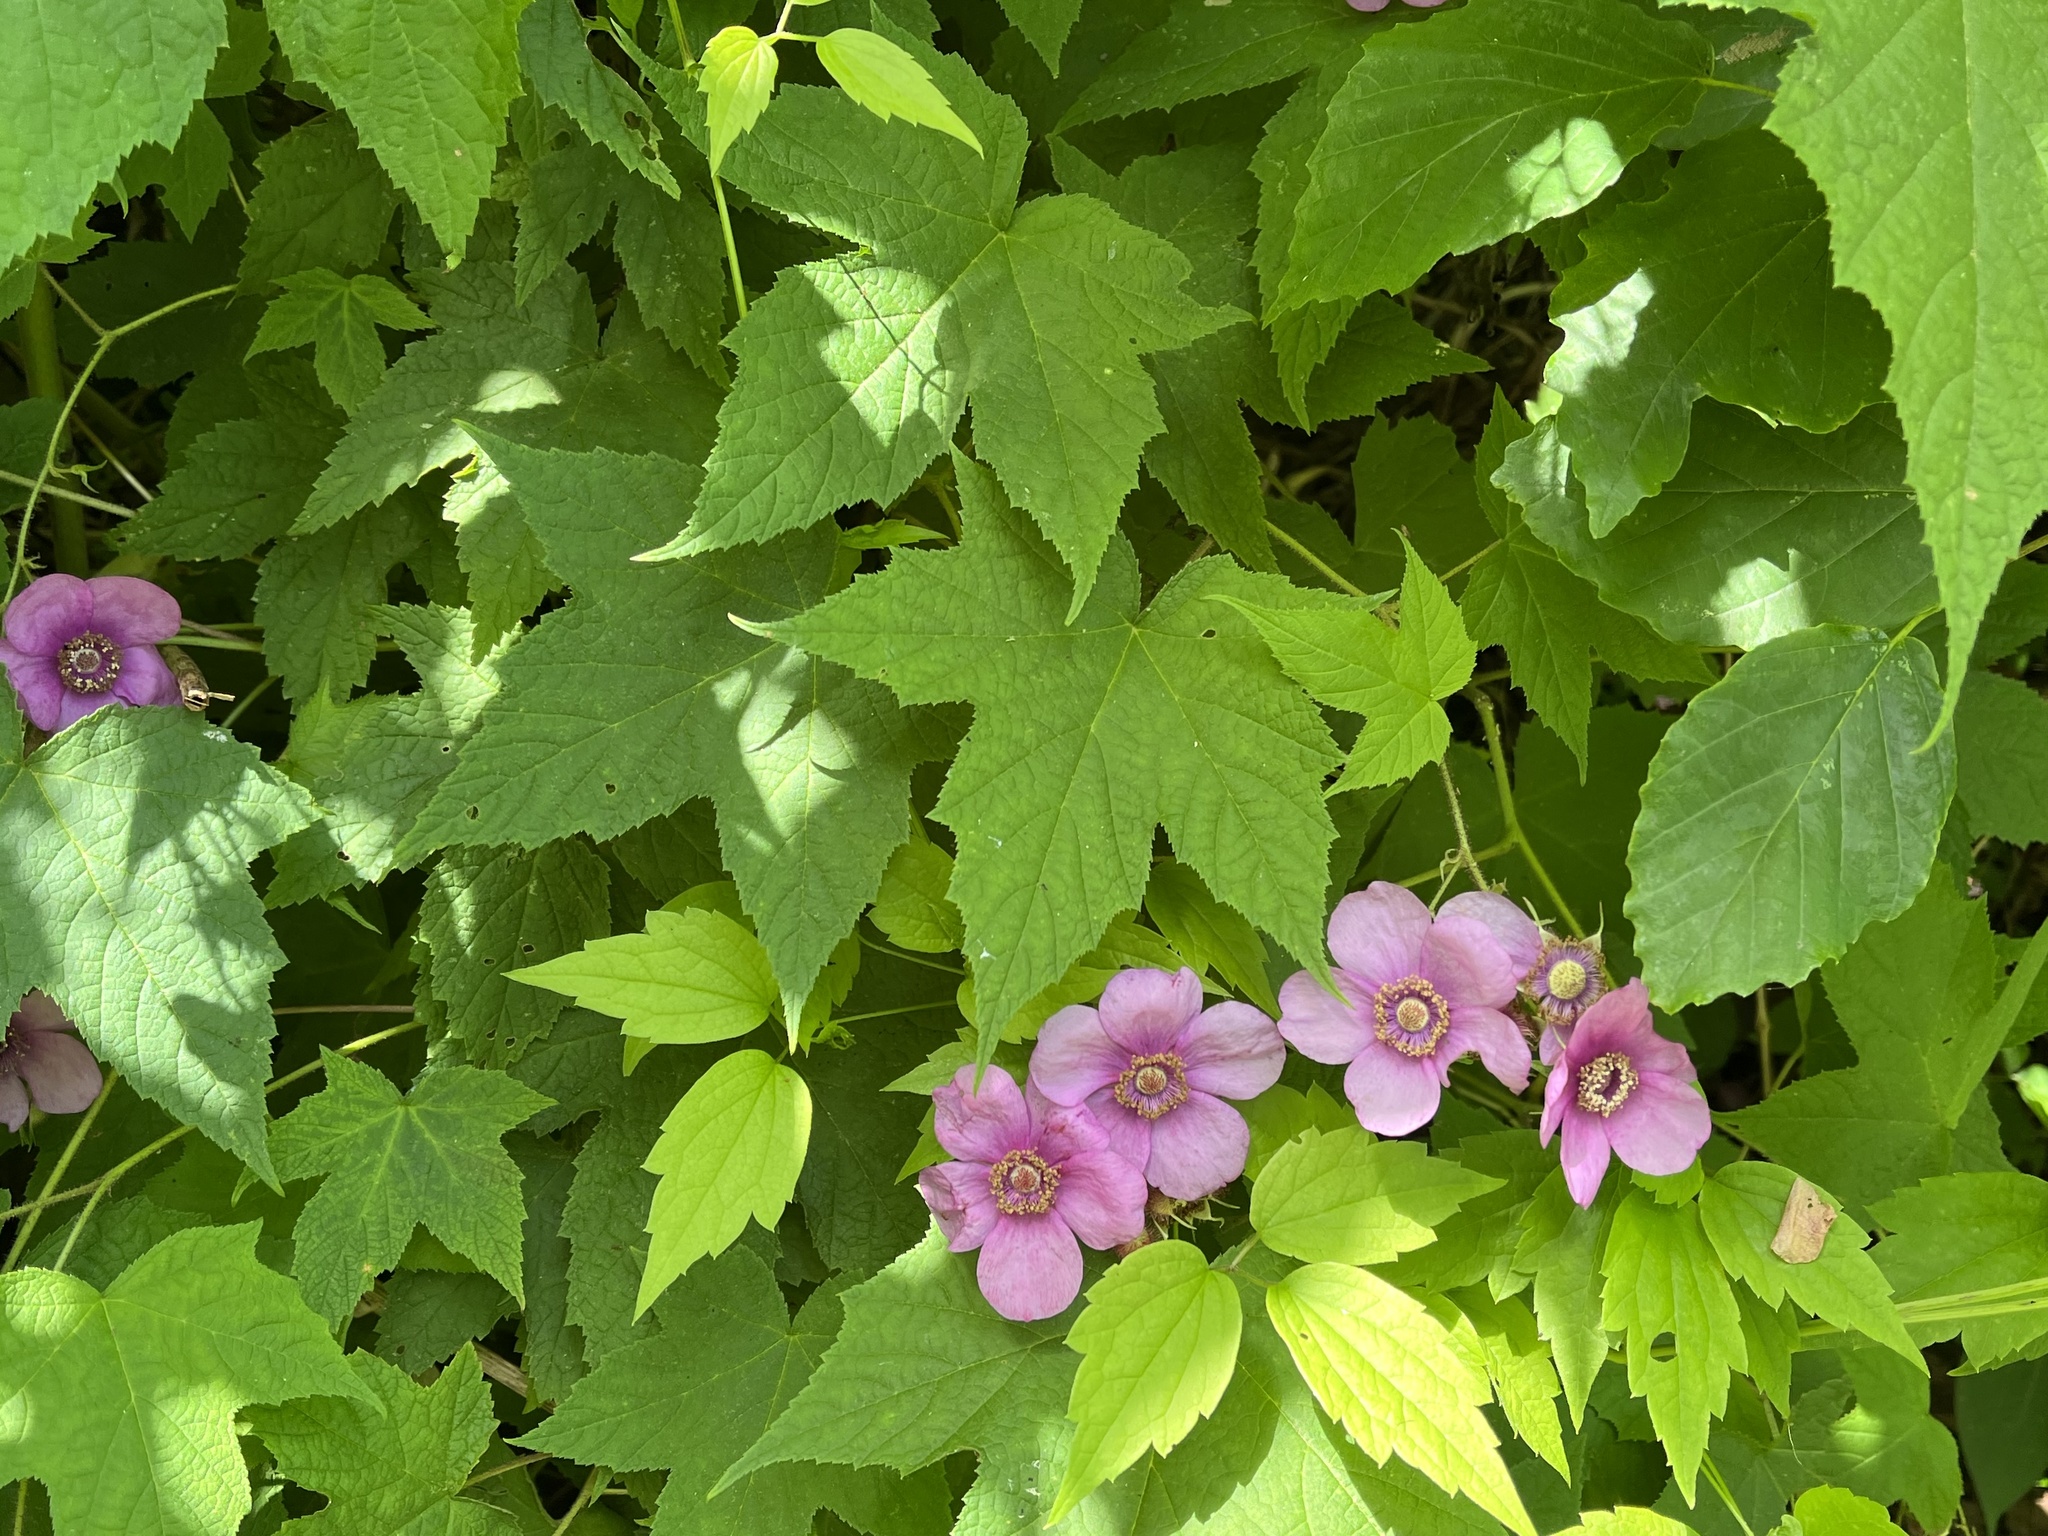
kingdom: Plantae
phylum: Tracheophyta
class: Magnoliopsida
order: Rosales
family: Rosaceae
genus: Rubus
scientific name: Rubus odoratus
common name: Purple-flowered raspberry
